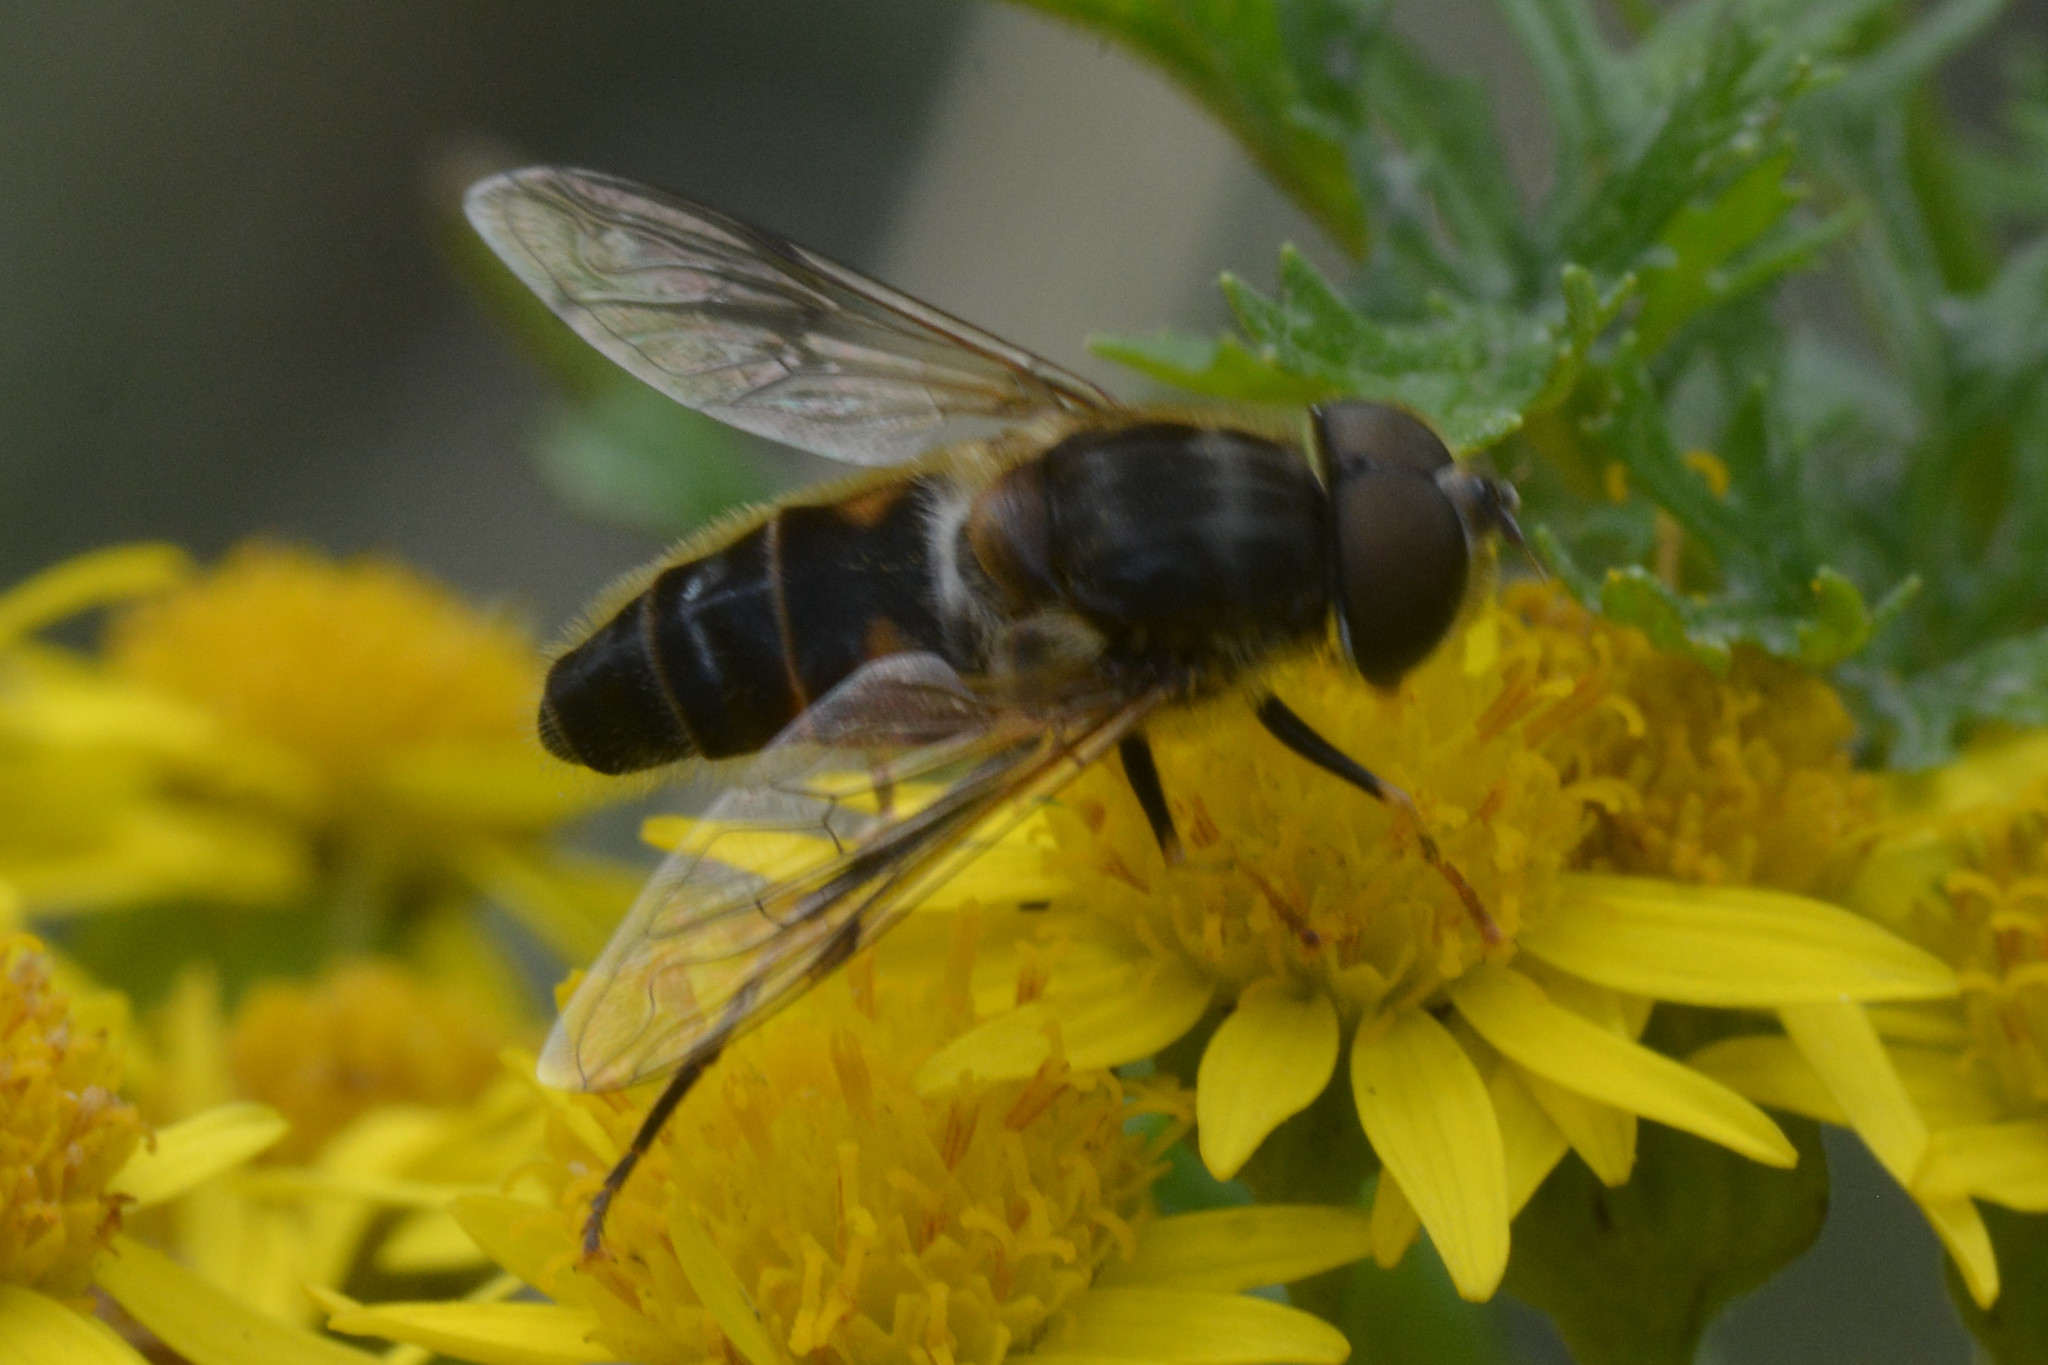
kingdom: Animalia
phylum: Arthropoda
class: Insecta
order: Diptera
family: Syrphidae
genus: Eristalis
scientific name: Eristalis pertinax
